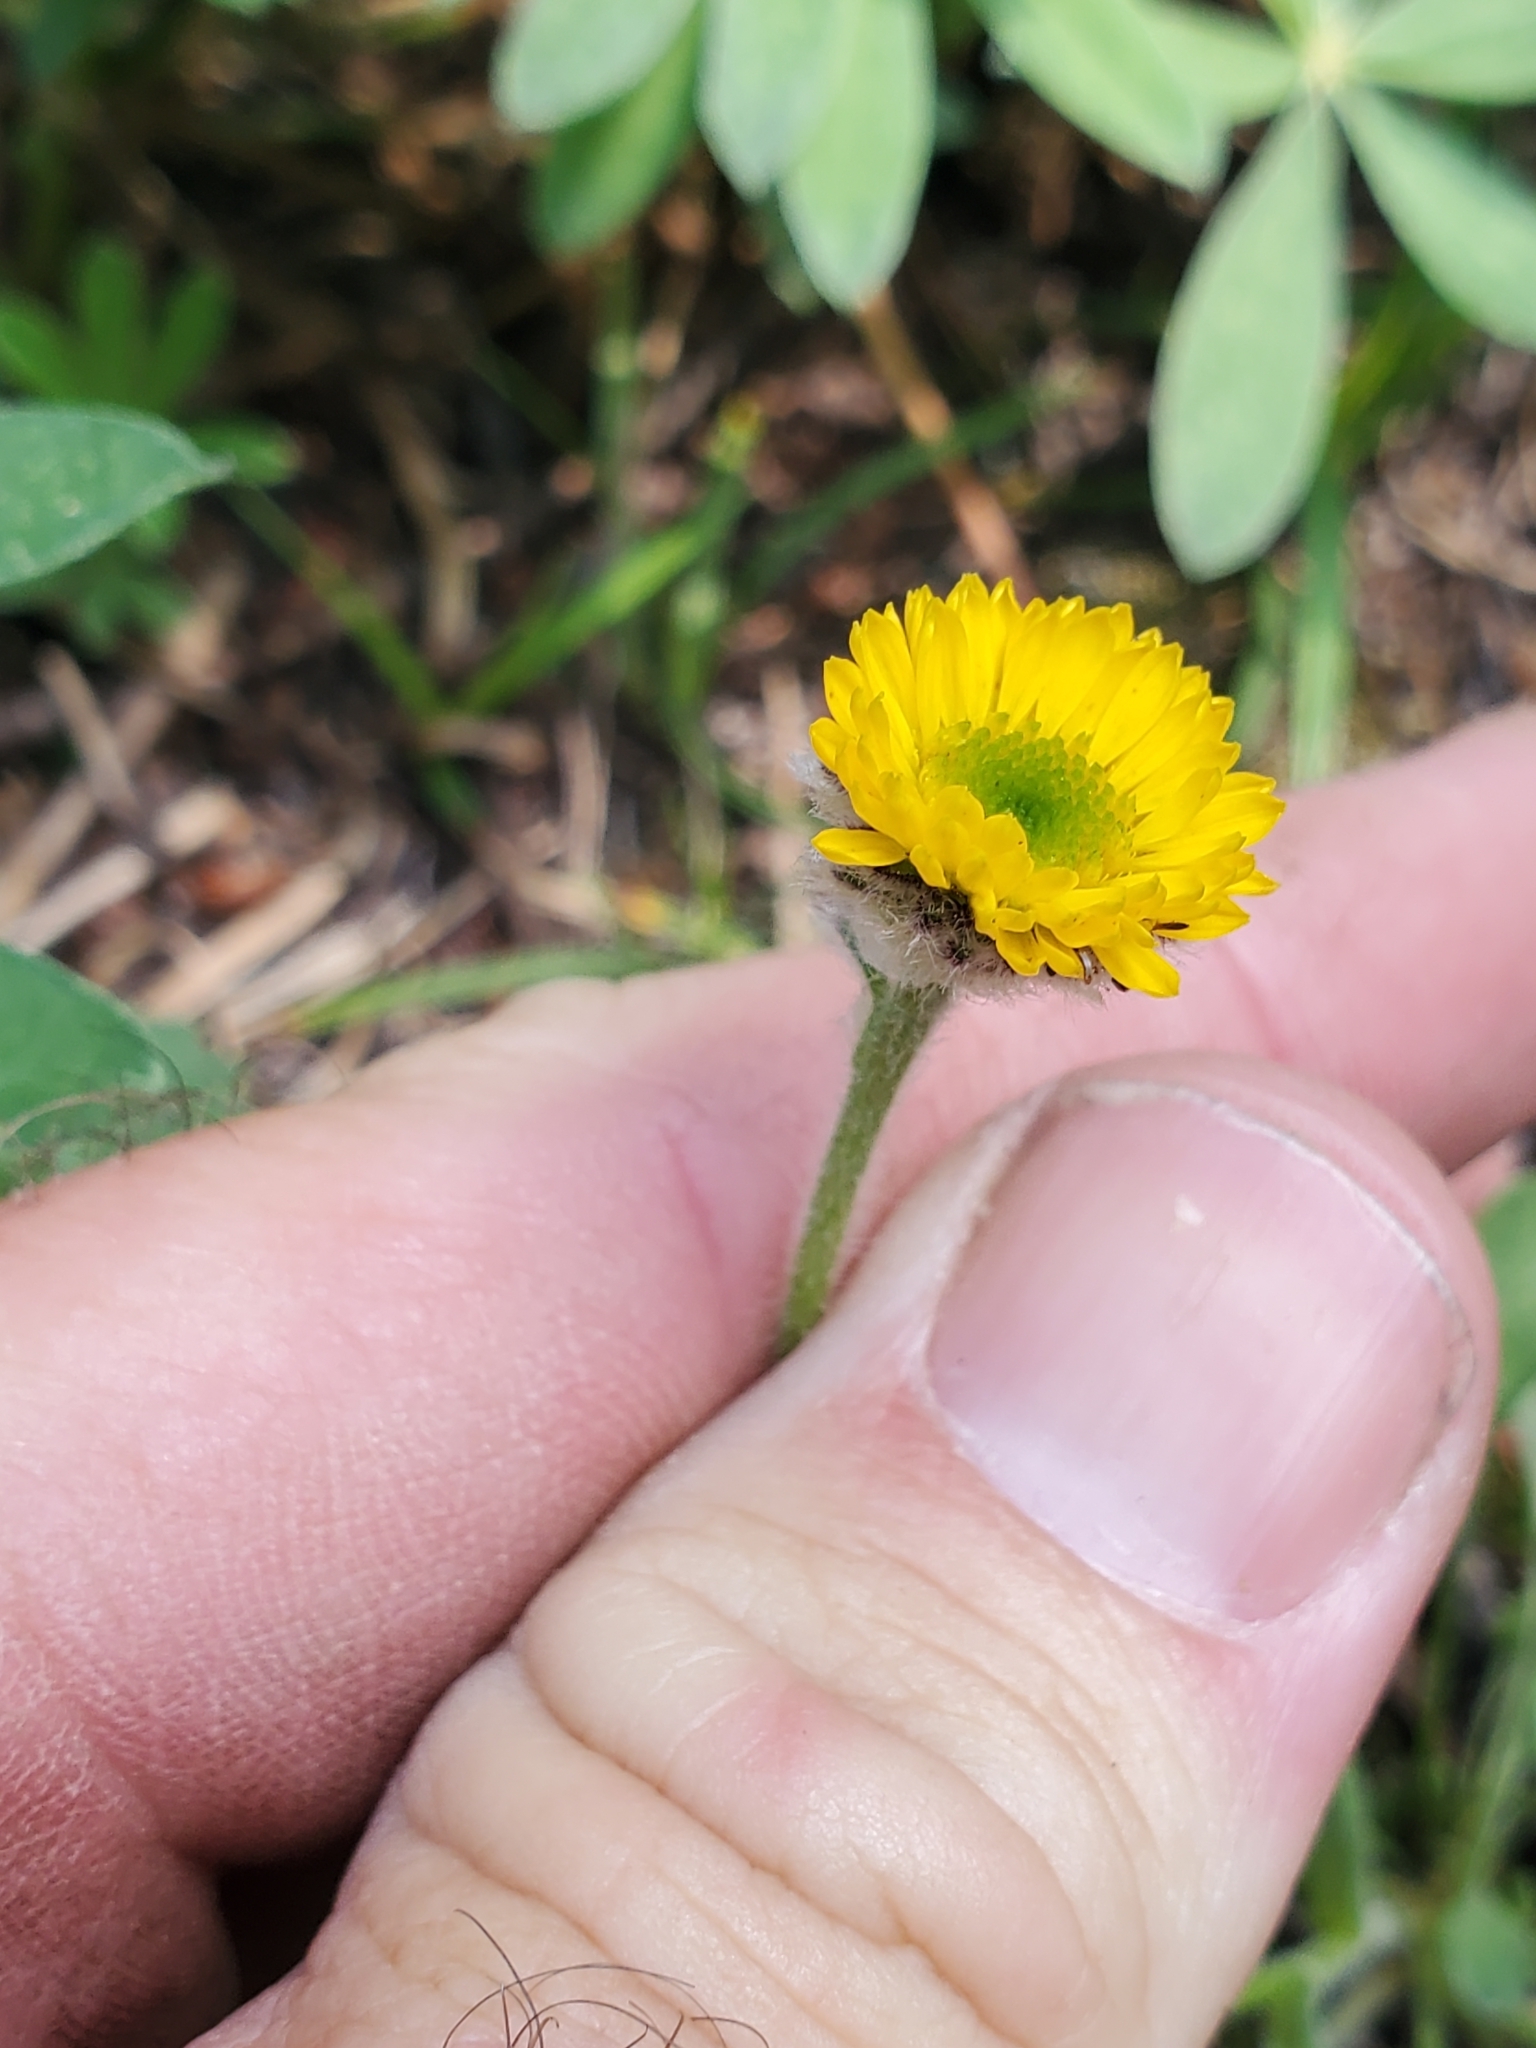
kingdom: Plantae
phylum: Tracheophyta
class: Magnoliopsida
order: Asterales
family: Asteraceae
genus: Erigeron
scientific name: Erigeron aureus
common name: Alpine yellow fleabane
